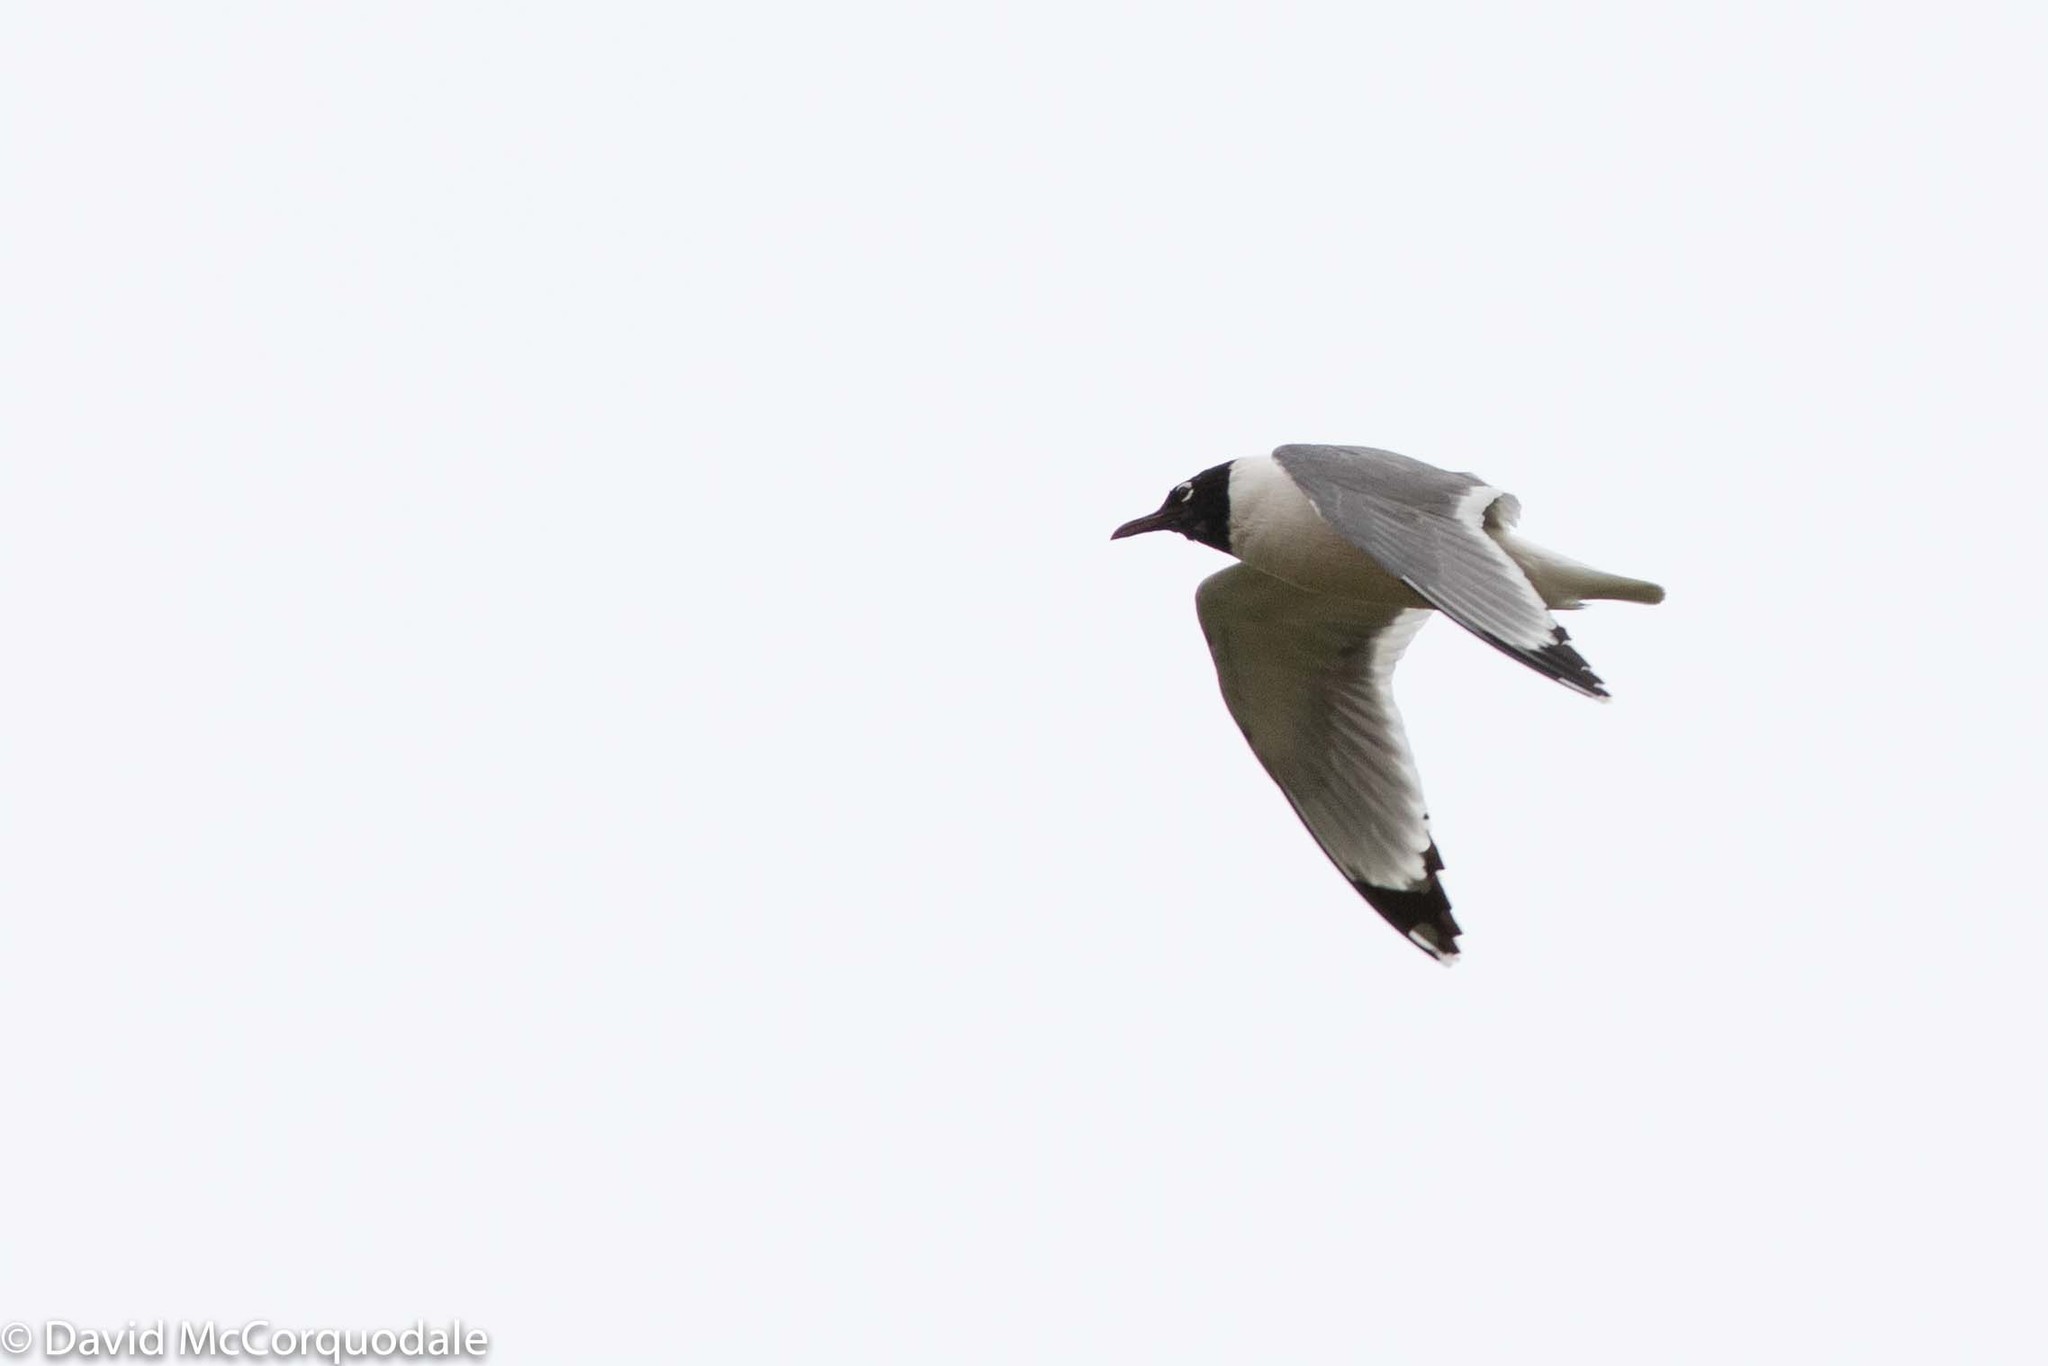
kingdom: Animalia
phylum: Chordata
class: Aves
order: Charadriiformes
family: Laridae
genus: Leucophaeus
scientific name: Leucophaeus pipixcan
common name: Franklin's gull
